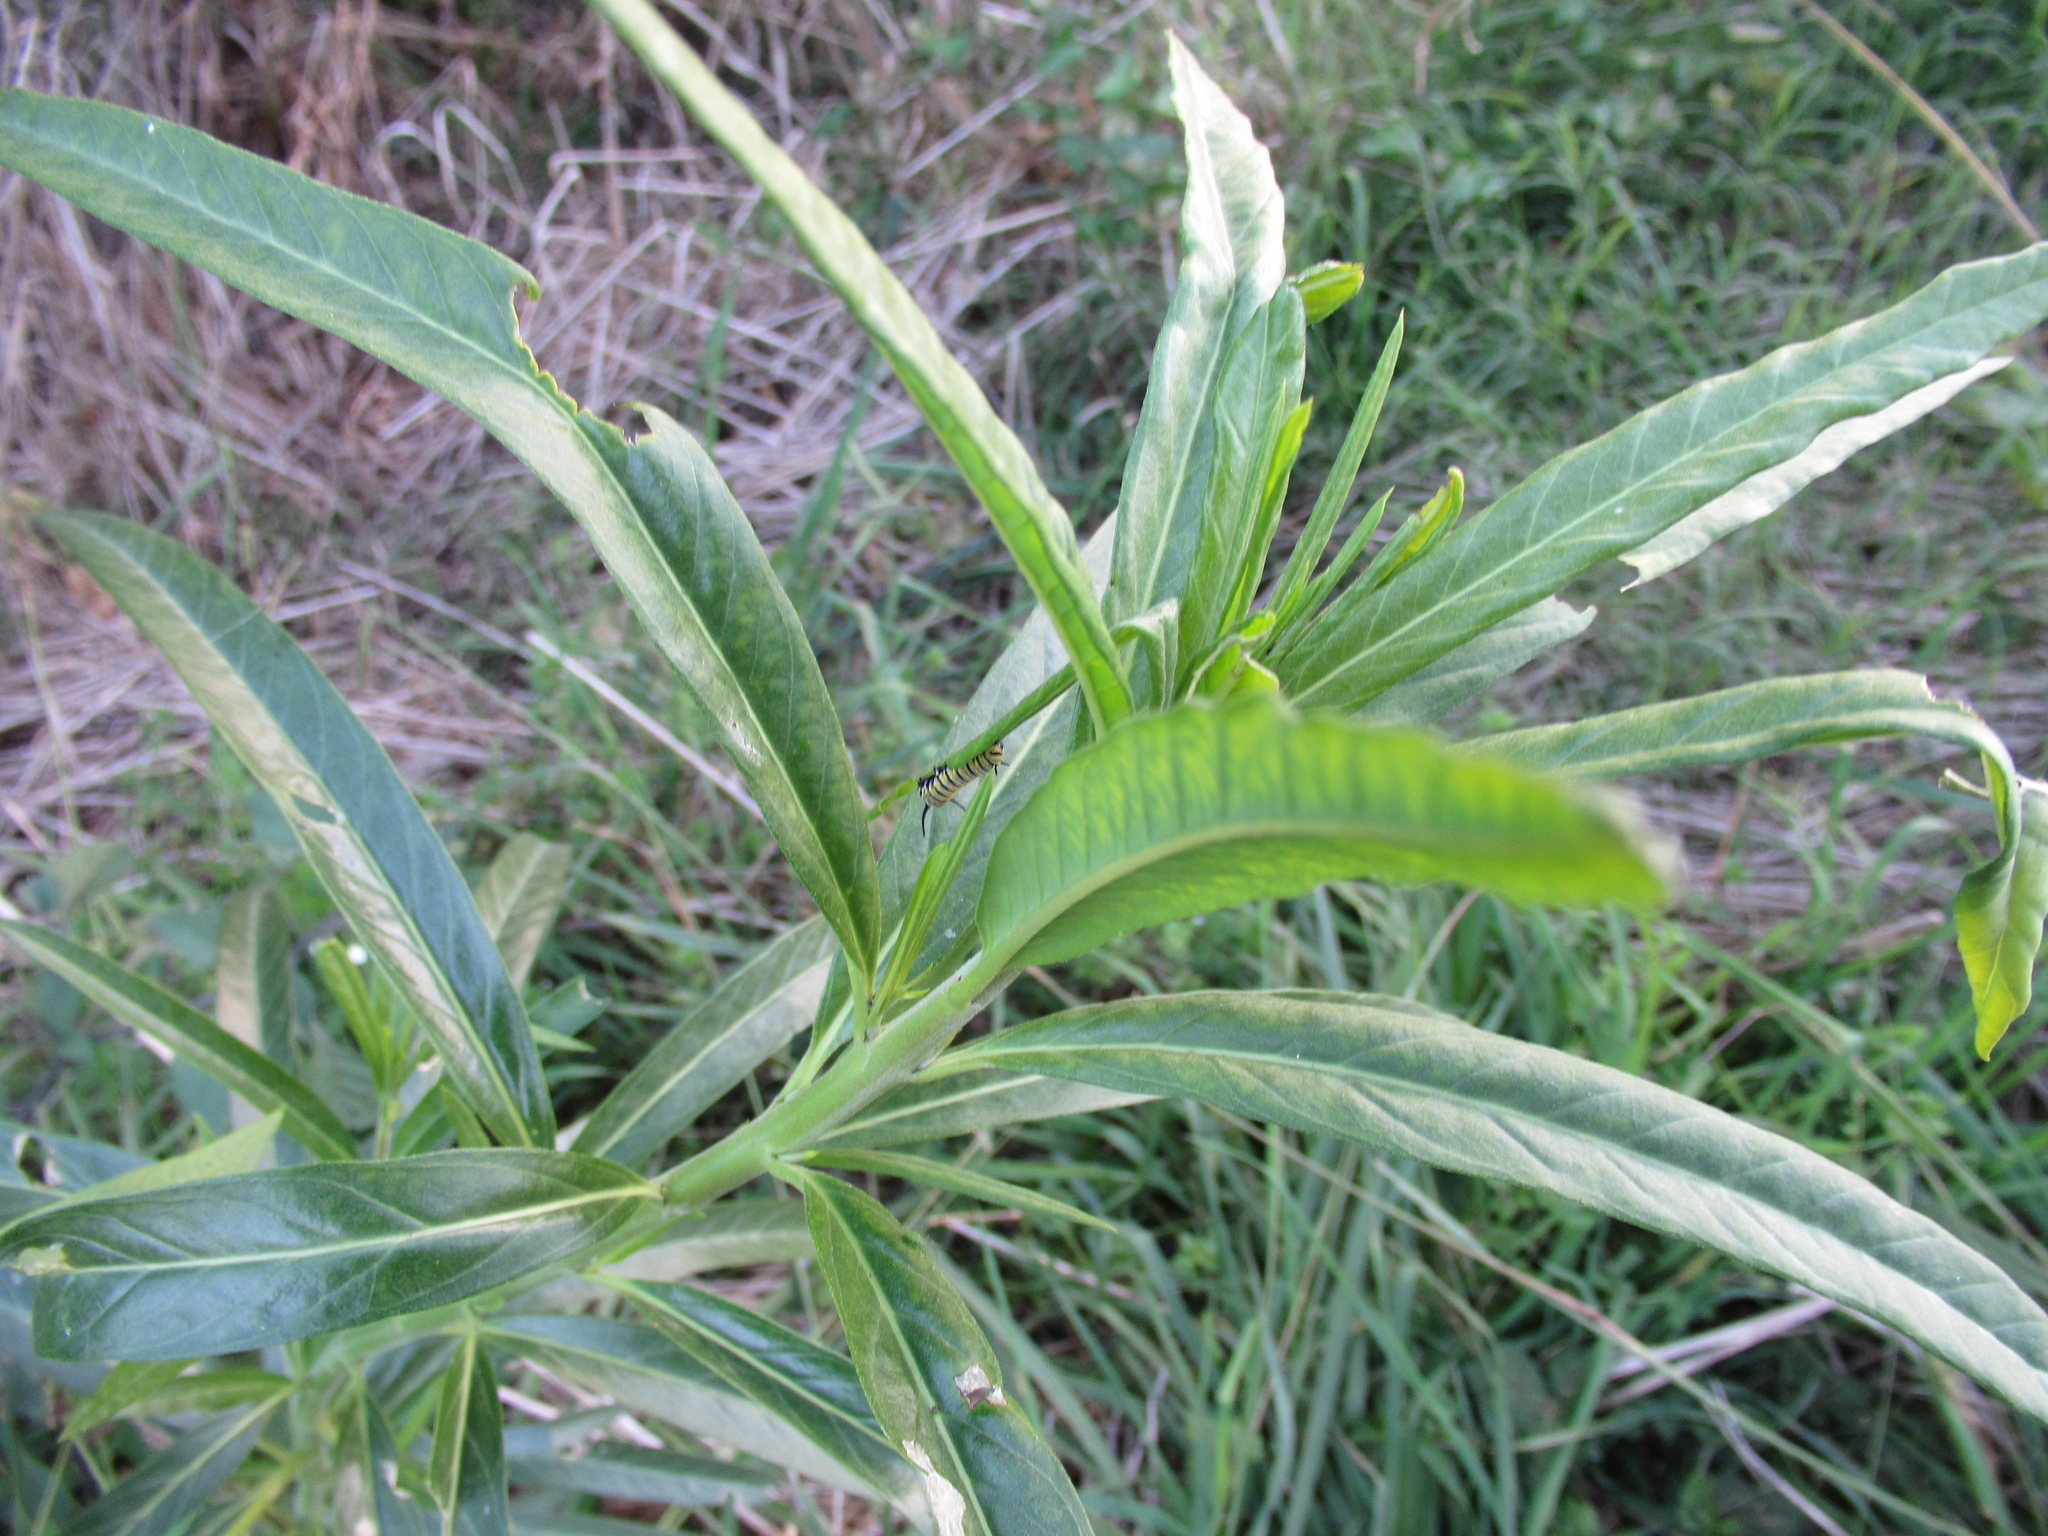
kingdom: Plantae
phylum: Tracheophyta
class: Magnoliopsida
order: Gentianales
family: Apocynaceae
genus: Gomphocarpus
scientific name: Gomphocarpus physocarpus
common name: Balloon cotton bush
